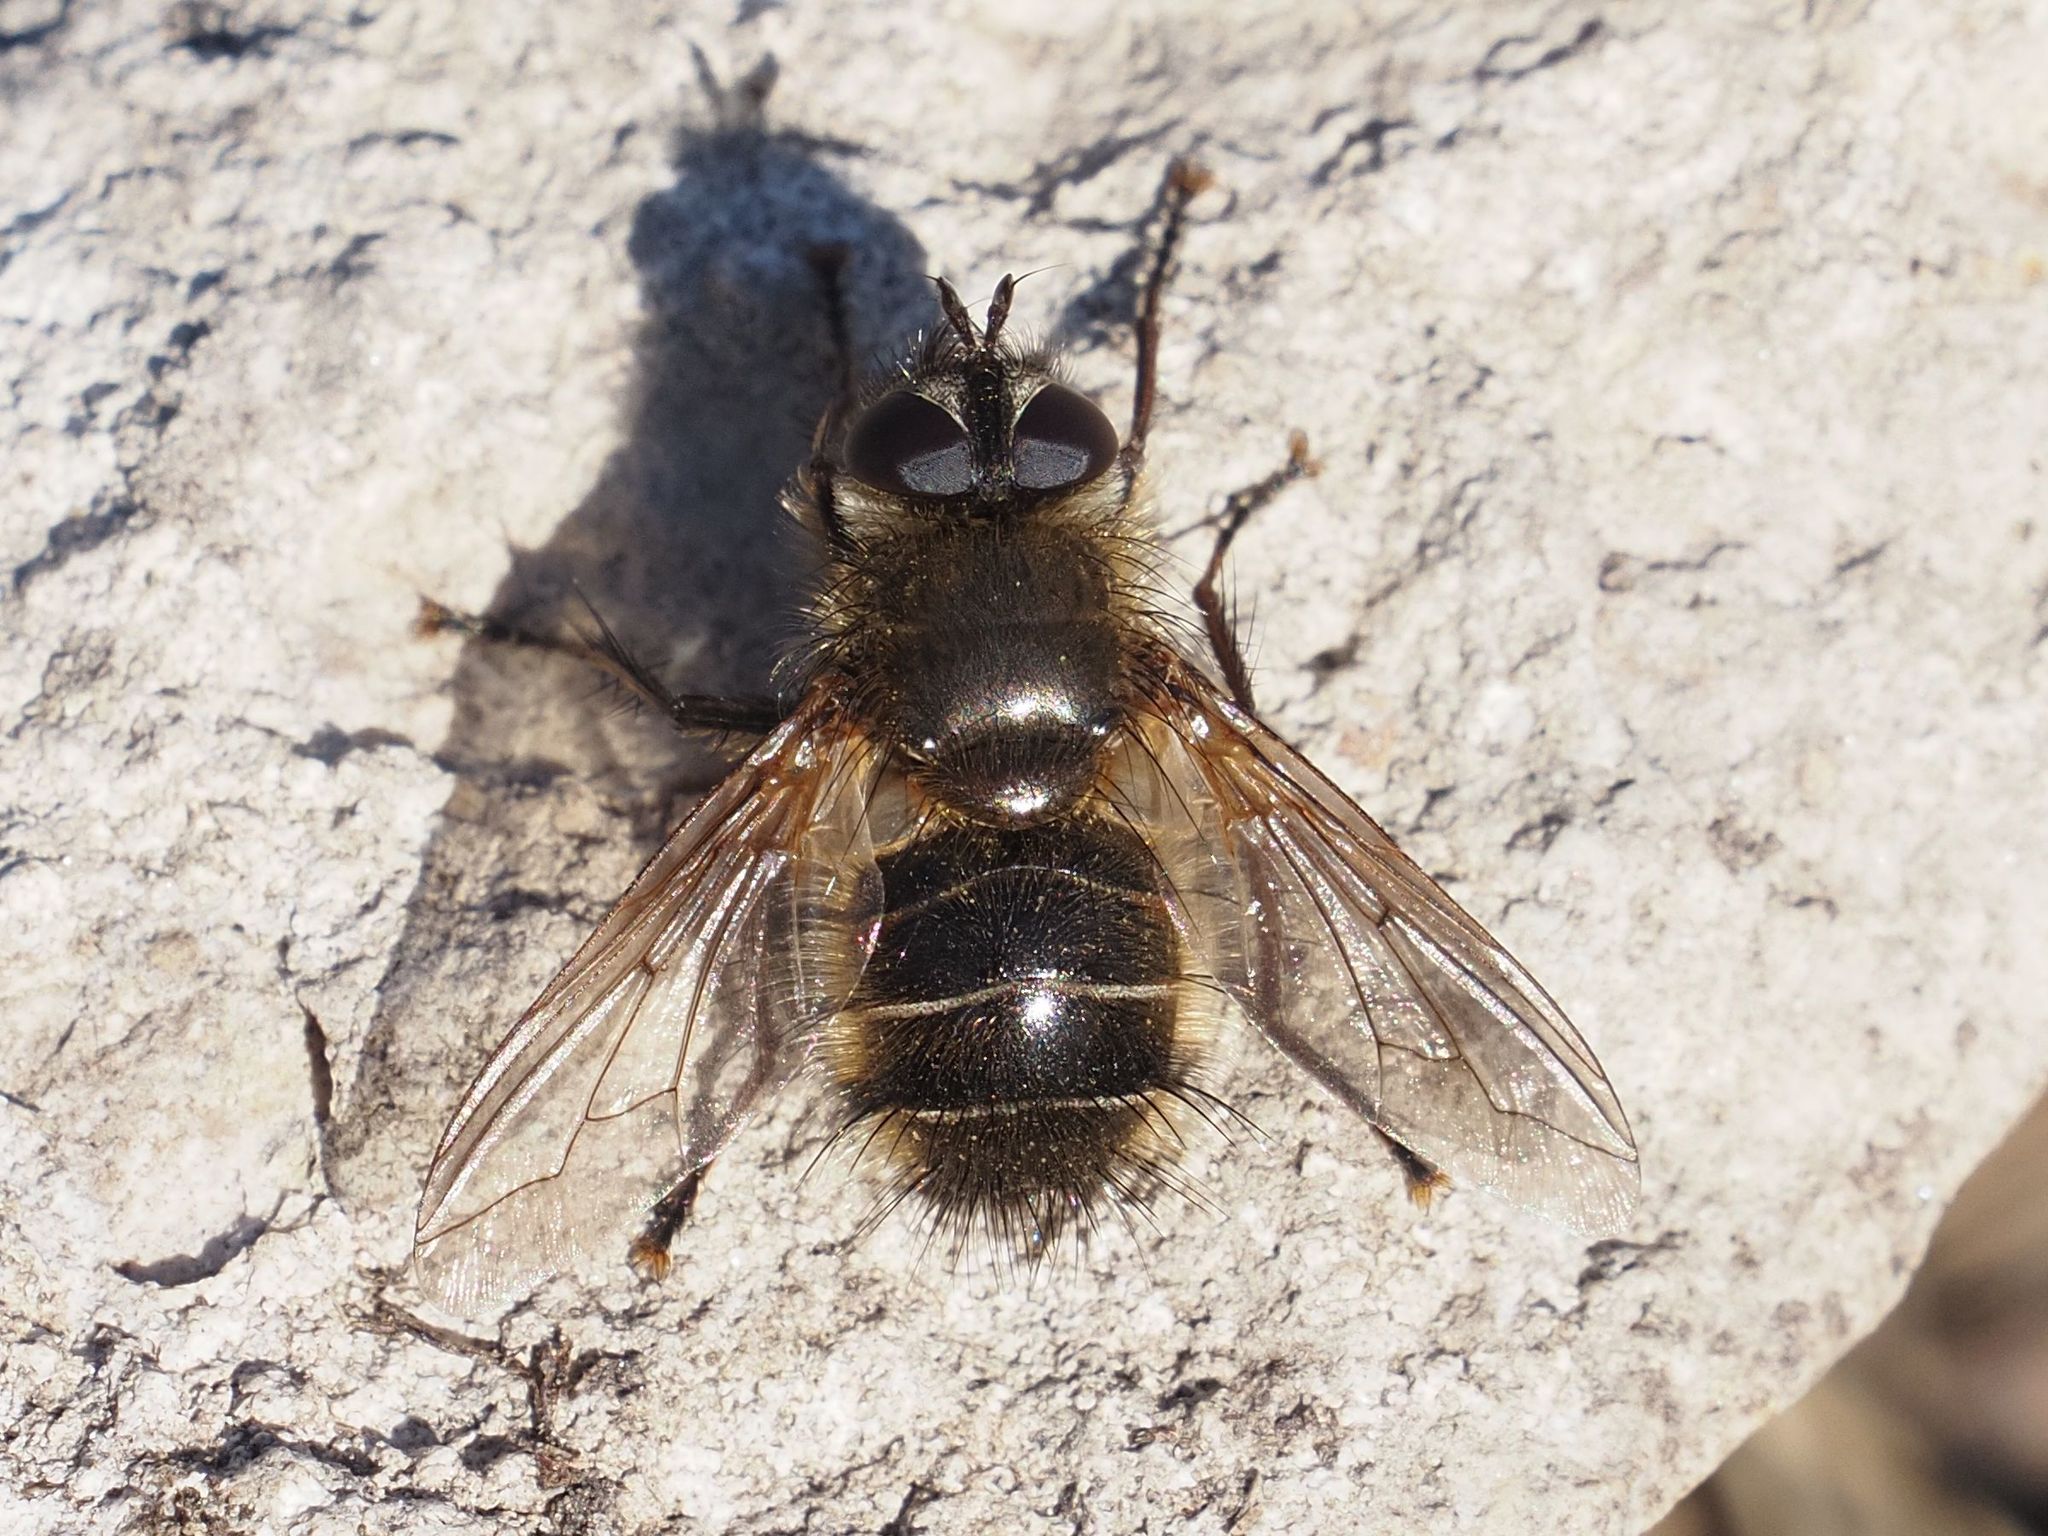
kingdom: Animalia
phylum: Arthropoda
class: Insecta
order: Diptera
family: Tachinidae
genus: Tachina
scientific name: Tachina ursina
